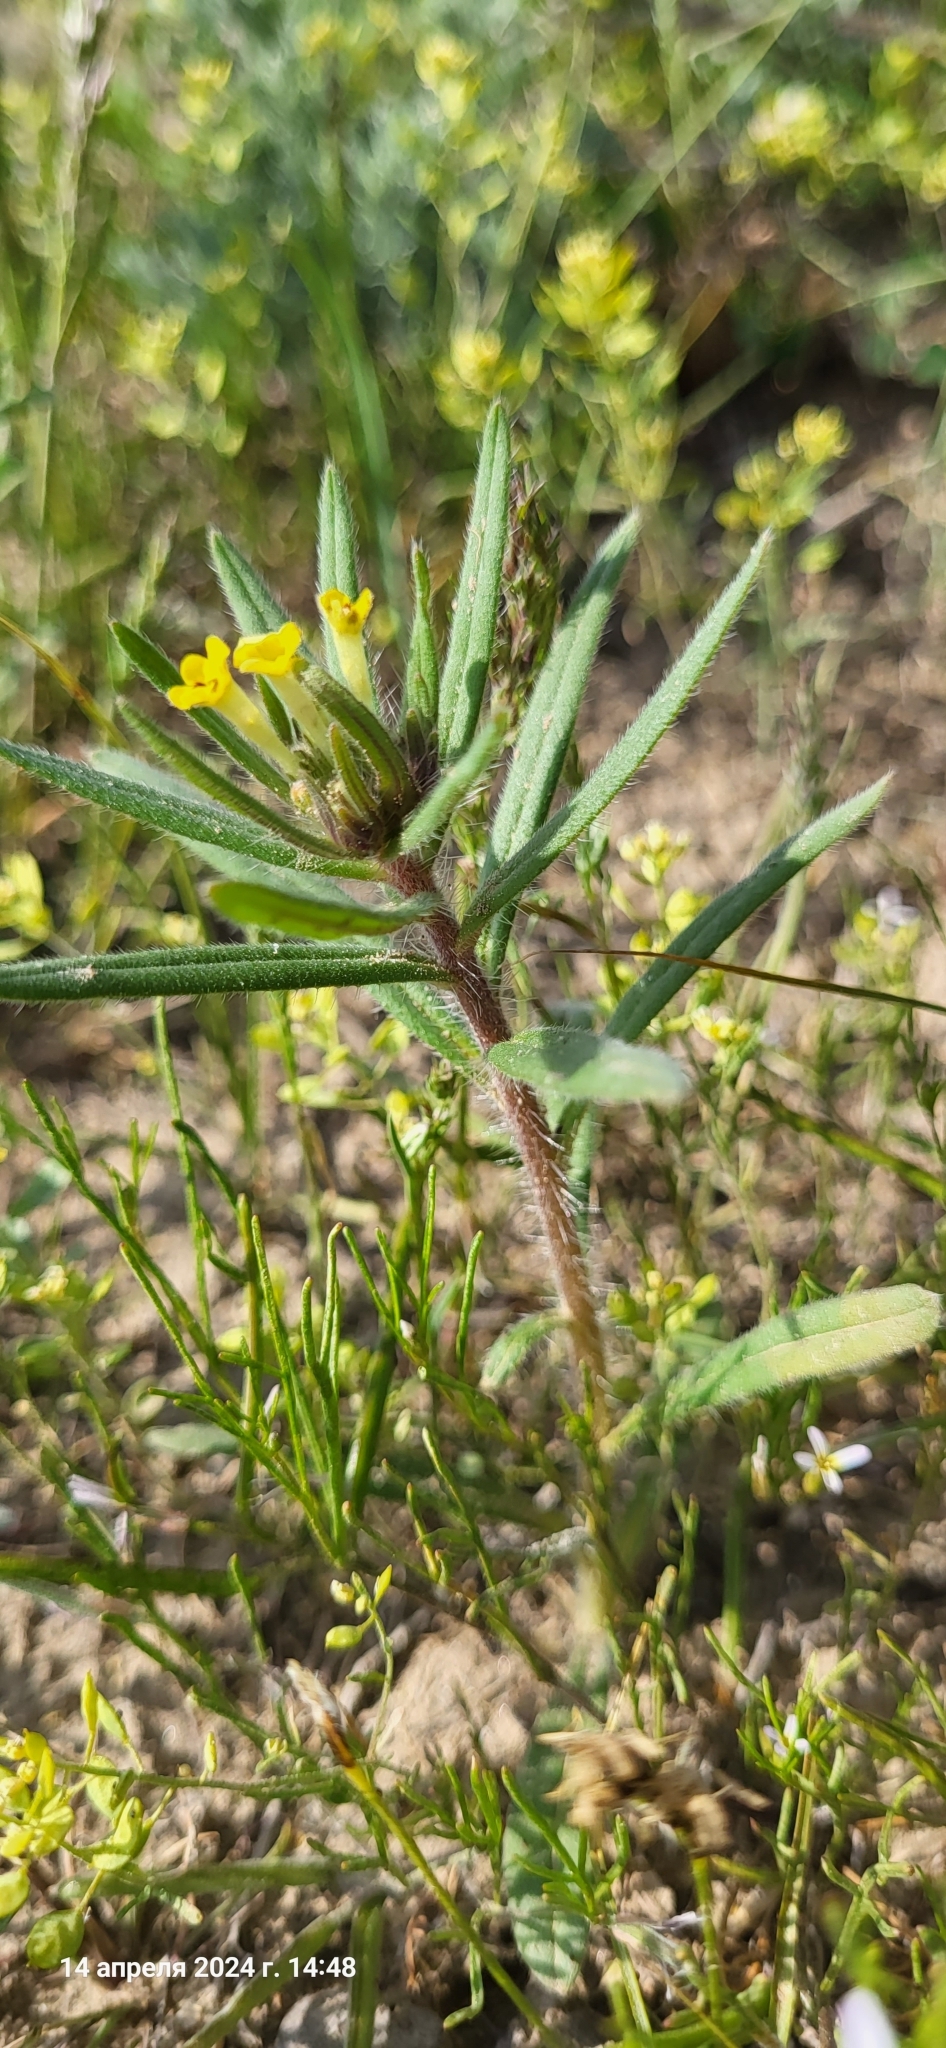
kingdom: Plantae
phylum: Tracheophyta
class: Magnoliopsida
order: Boraginales
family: Boraginaceae
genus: Arnebia
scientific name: Arnebia decumbens
